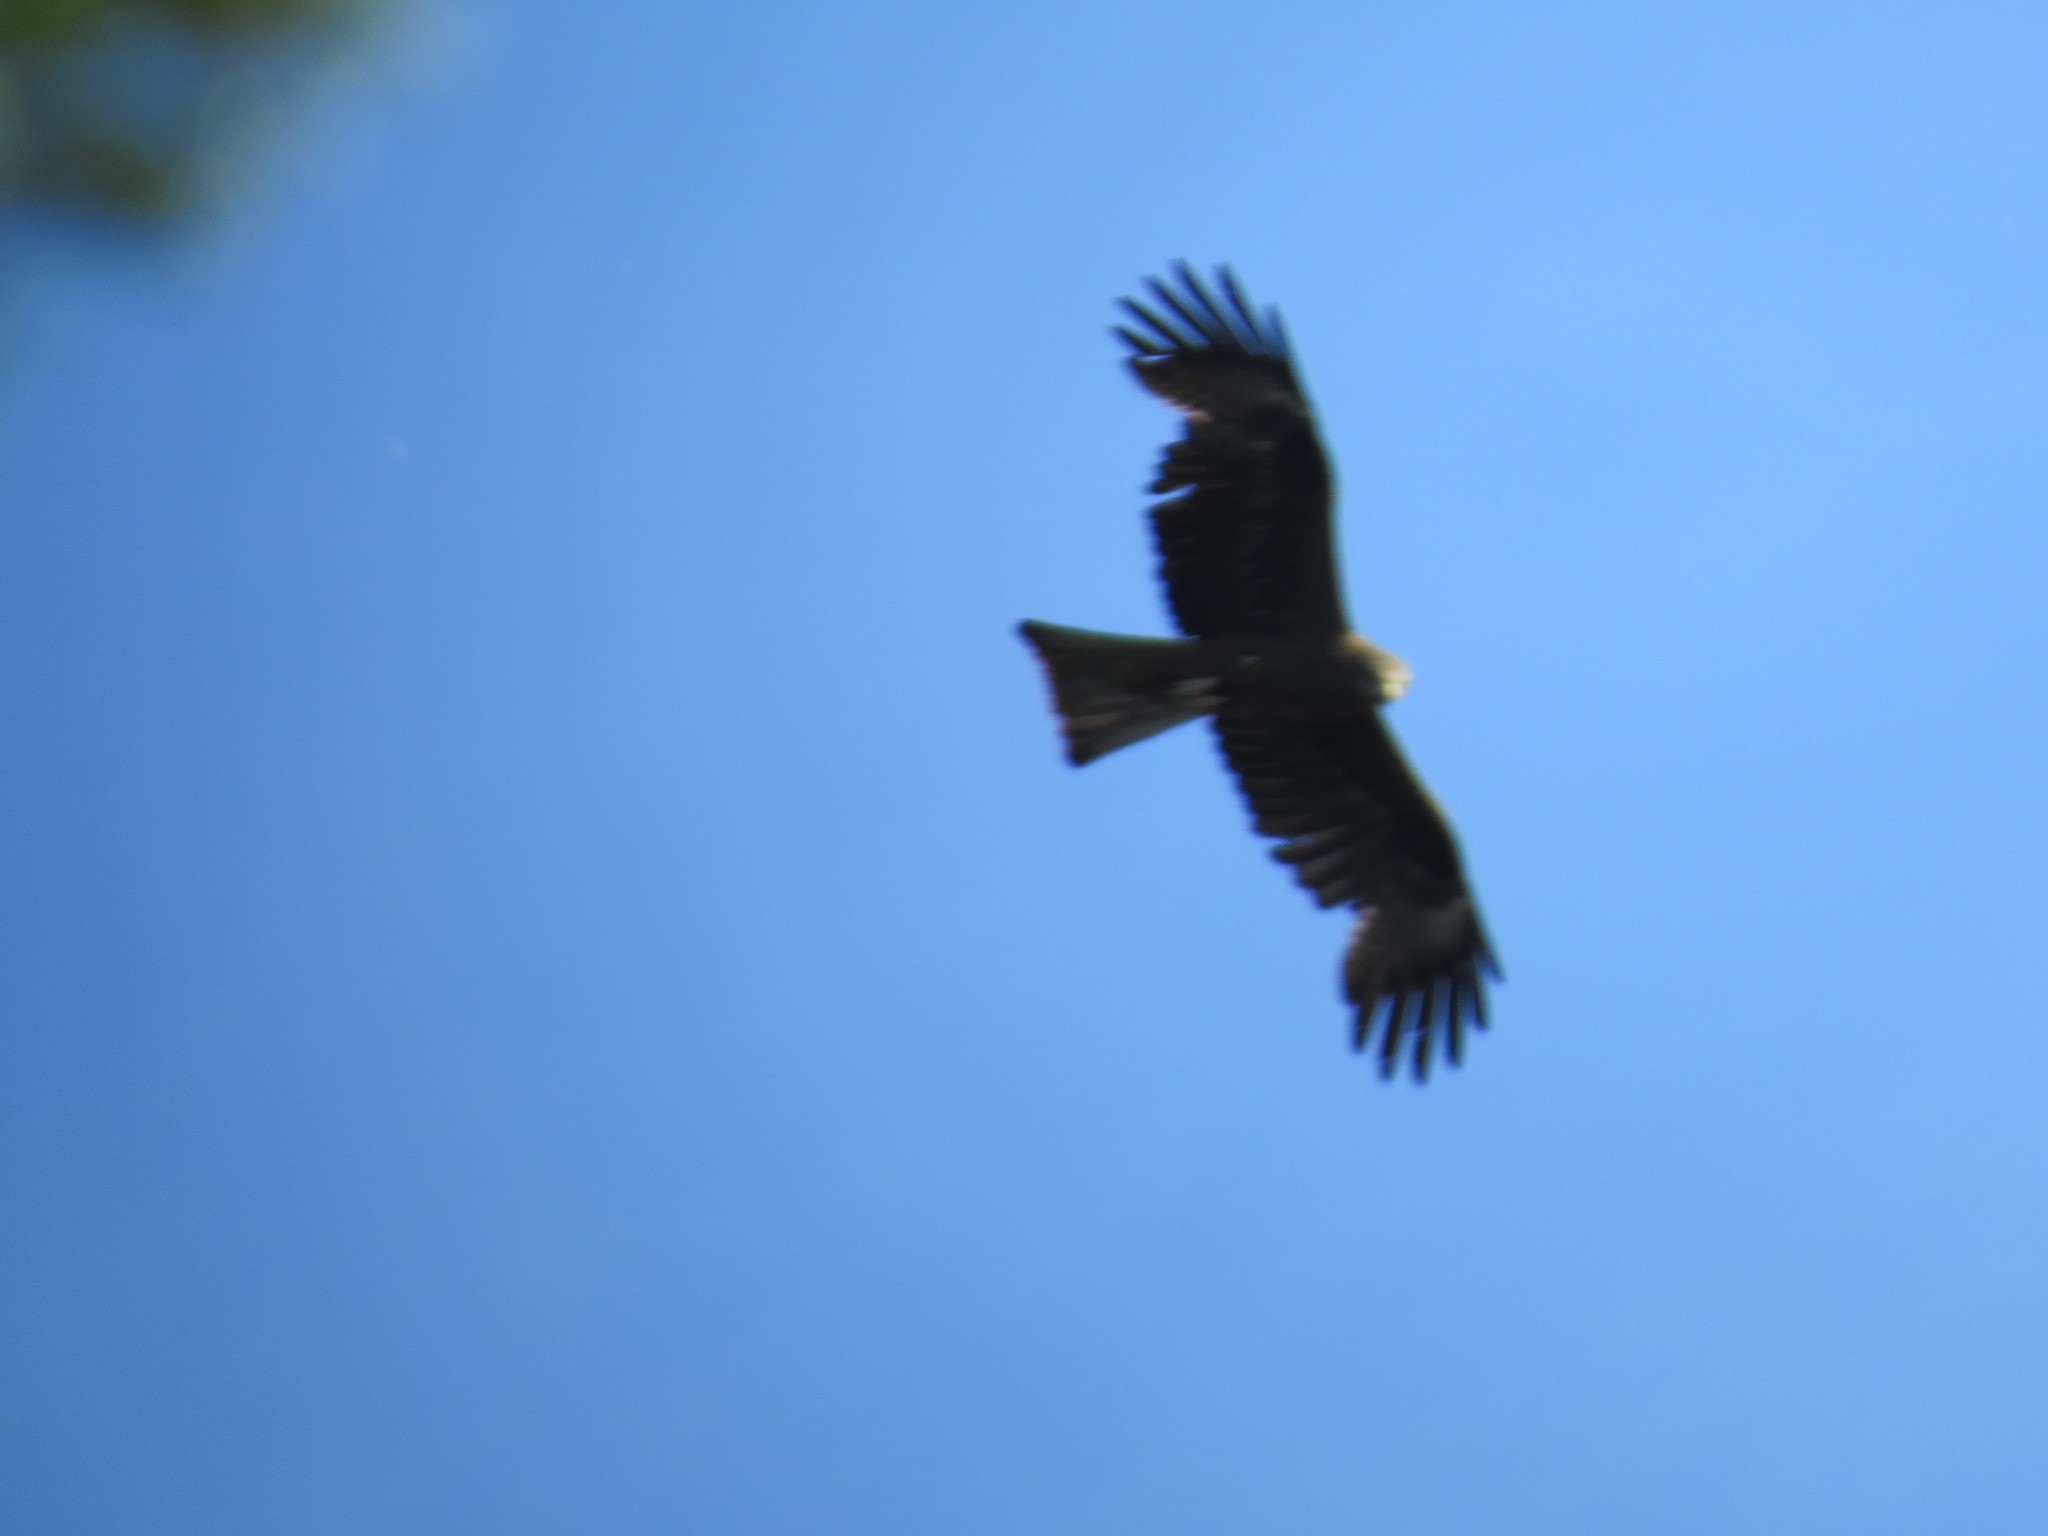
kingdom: Animalia
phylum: Chordata
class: Aves
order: Accipitriformes
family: Accipitridae
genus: Milvus
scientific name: Milvus migrans
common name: Black kite
